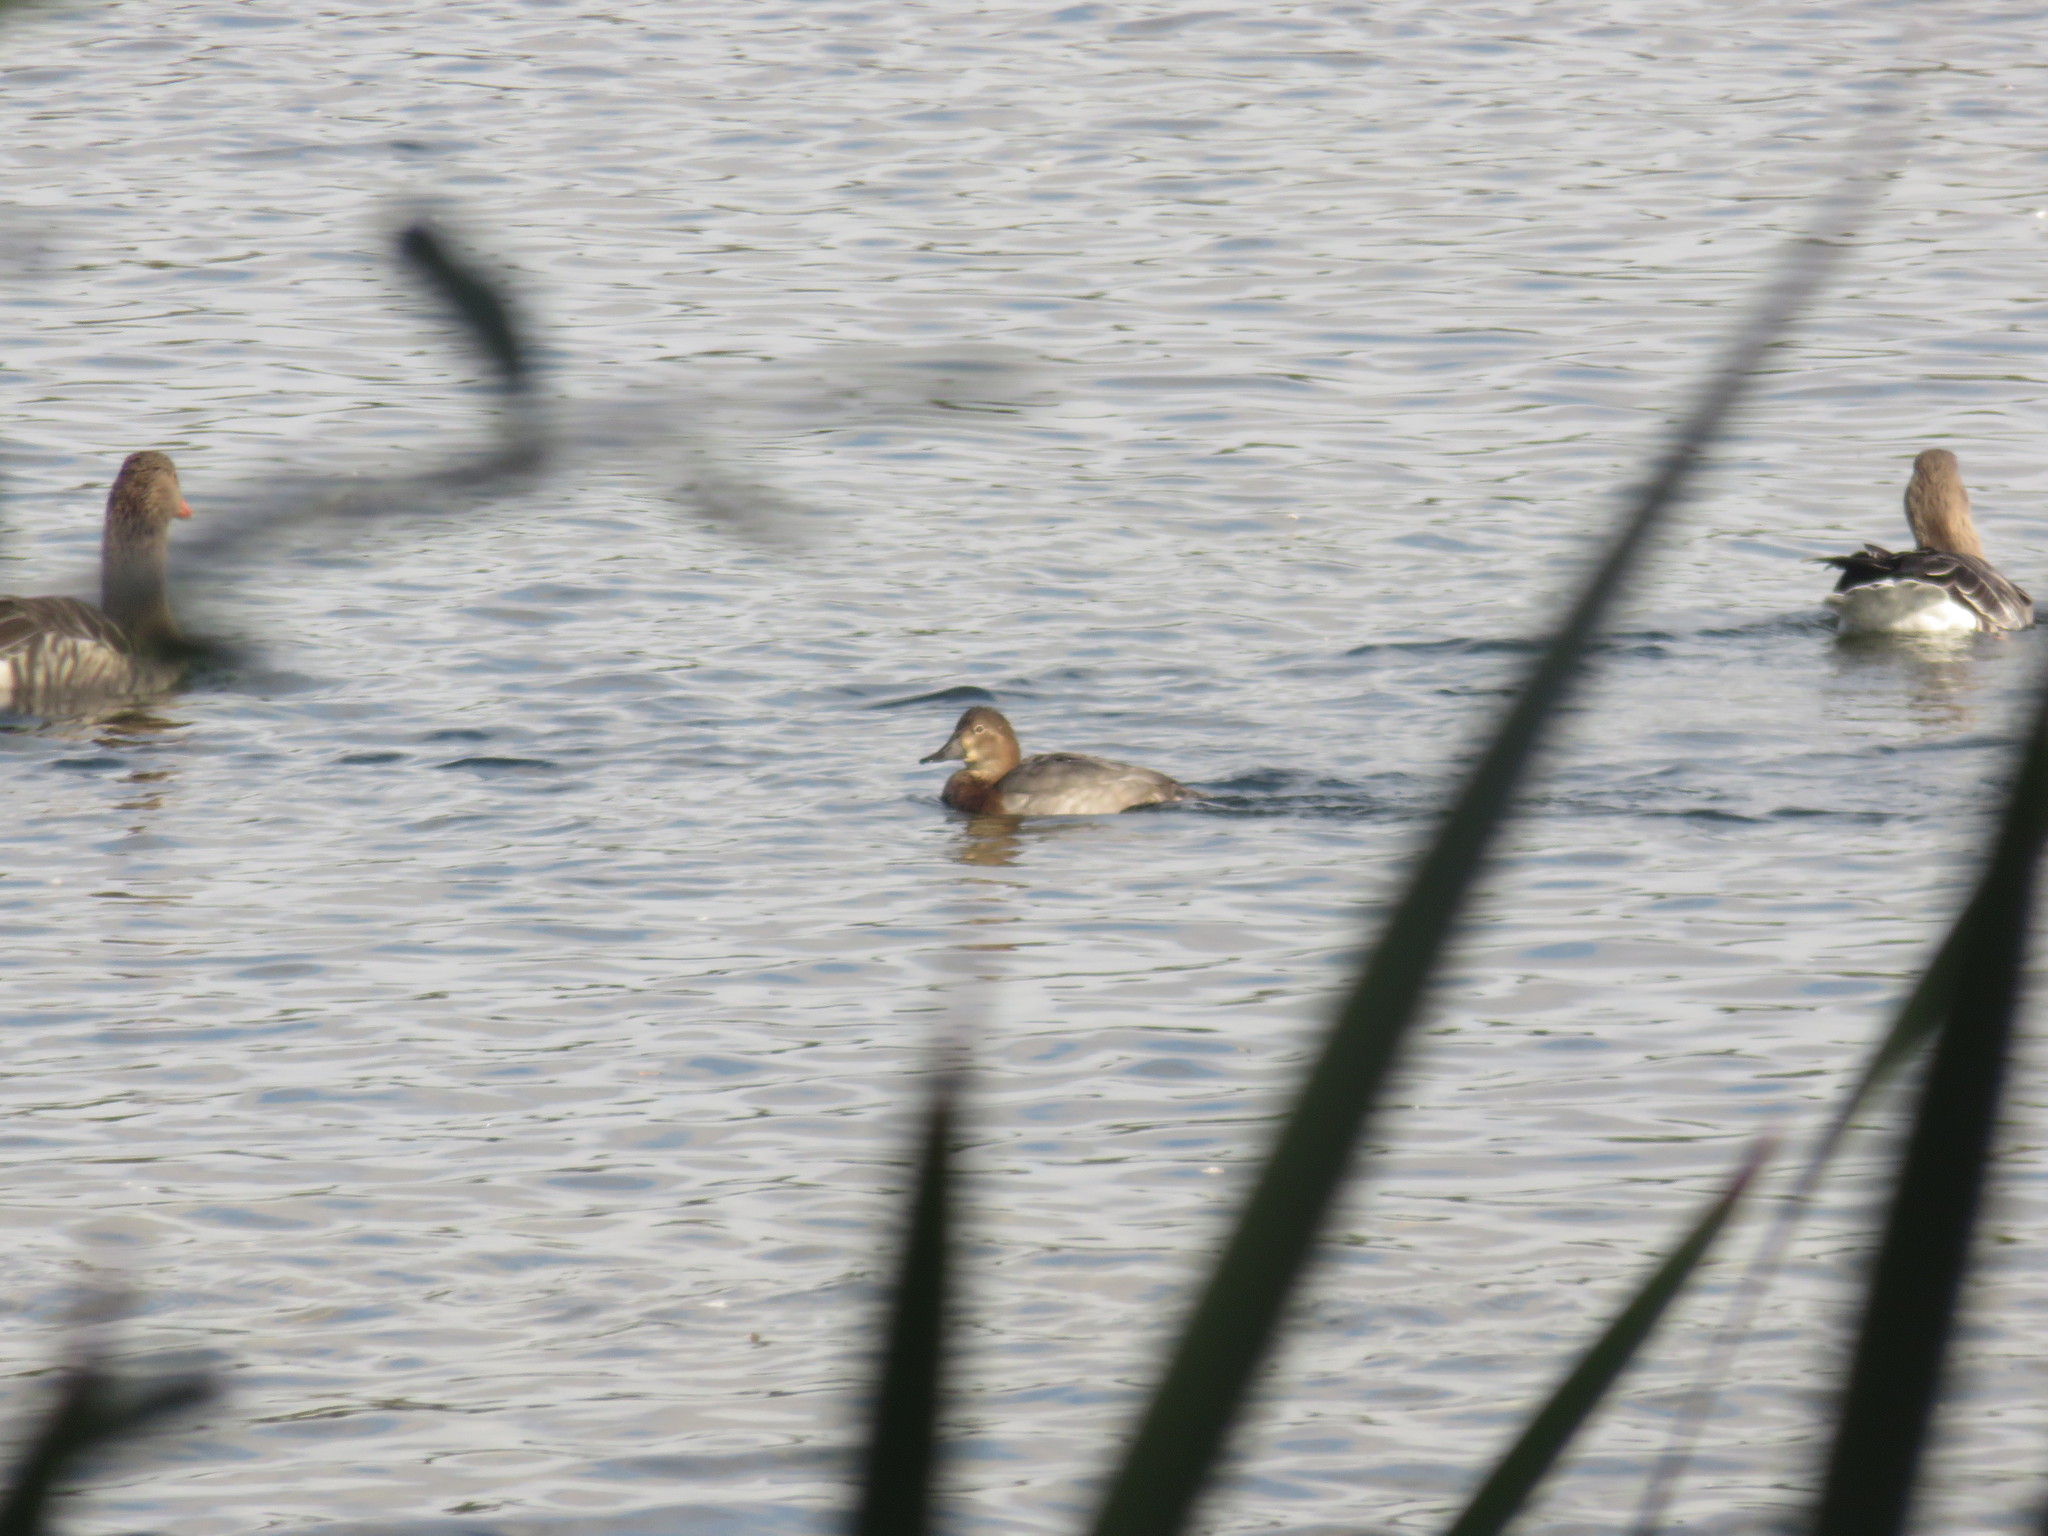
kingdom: Animalia
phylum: Chordata
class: Aves
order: Anseriformes
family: Anatidae
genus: Aythya
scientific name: Aythya ferina
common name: Common pochard
